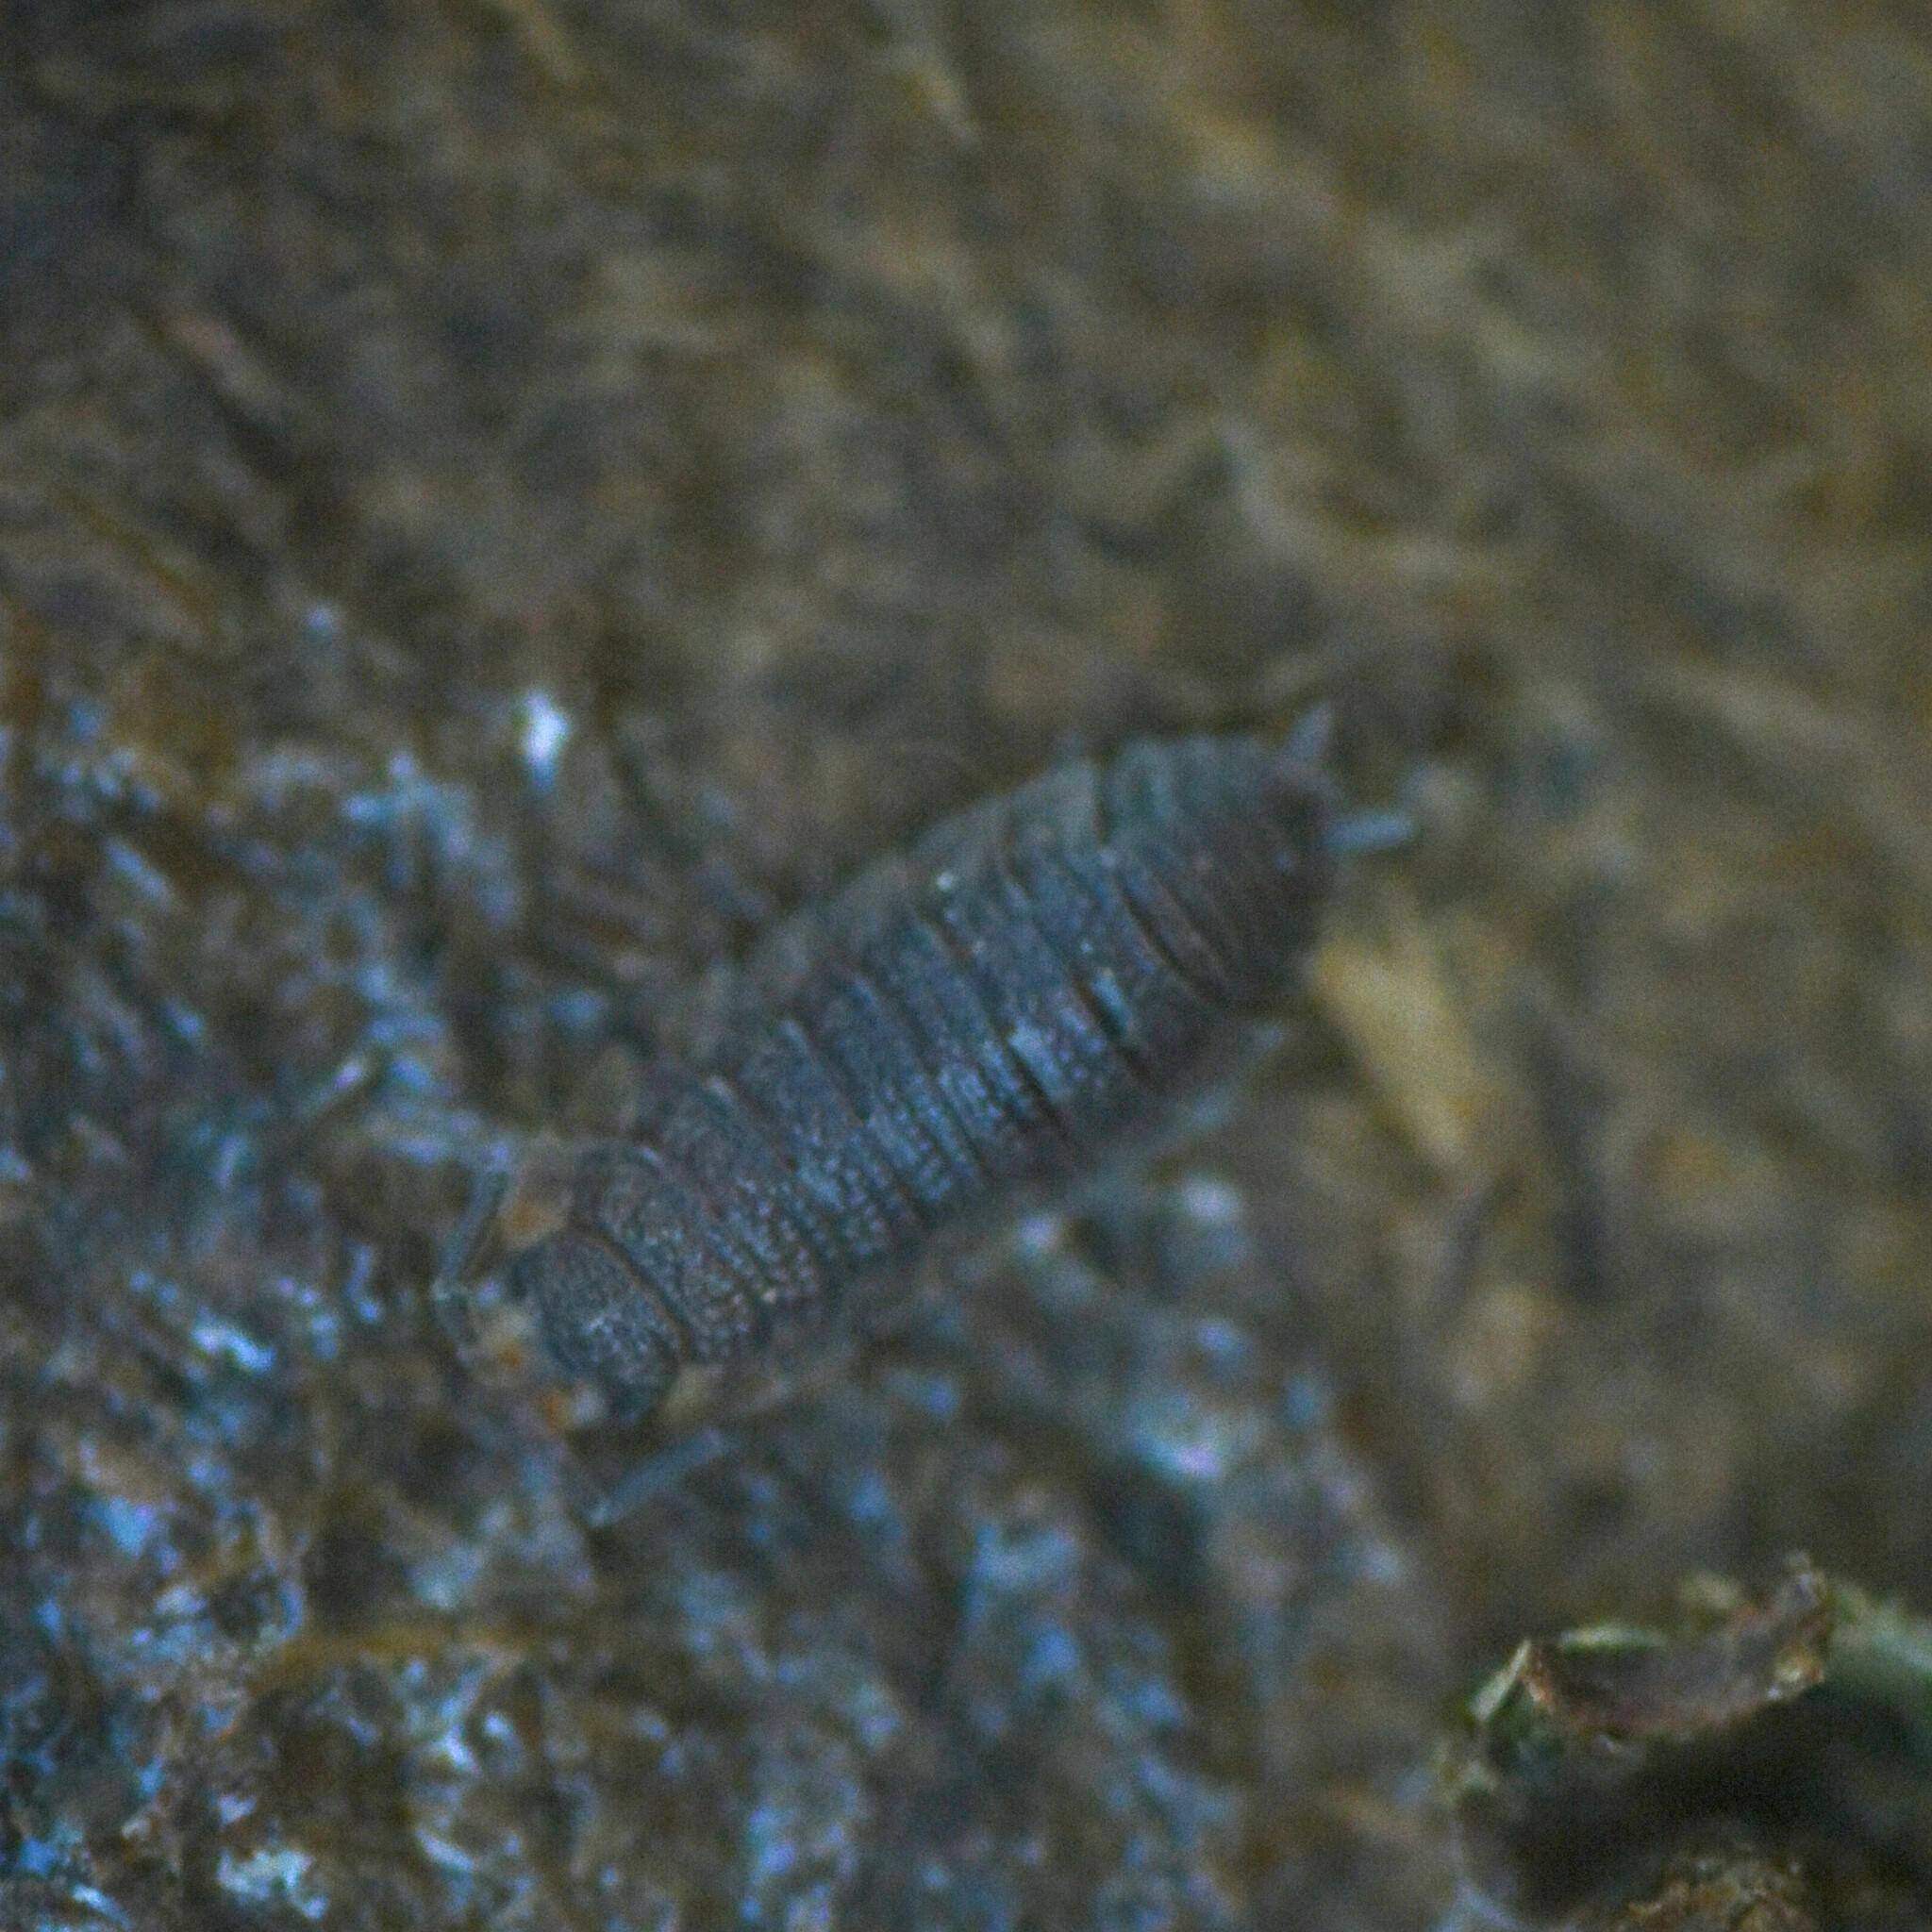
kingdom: Animalia
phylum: Arthropoda
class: Malacostraca
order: Isopoda
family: Porcellionidae
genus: Porcellio
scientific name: Porcellio scaber
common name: Common rough woodlouse
